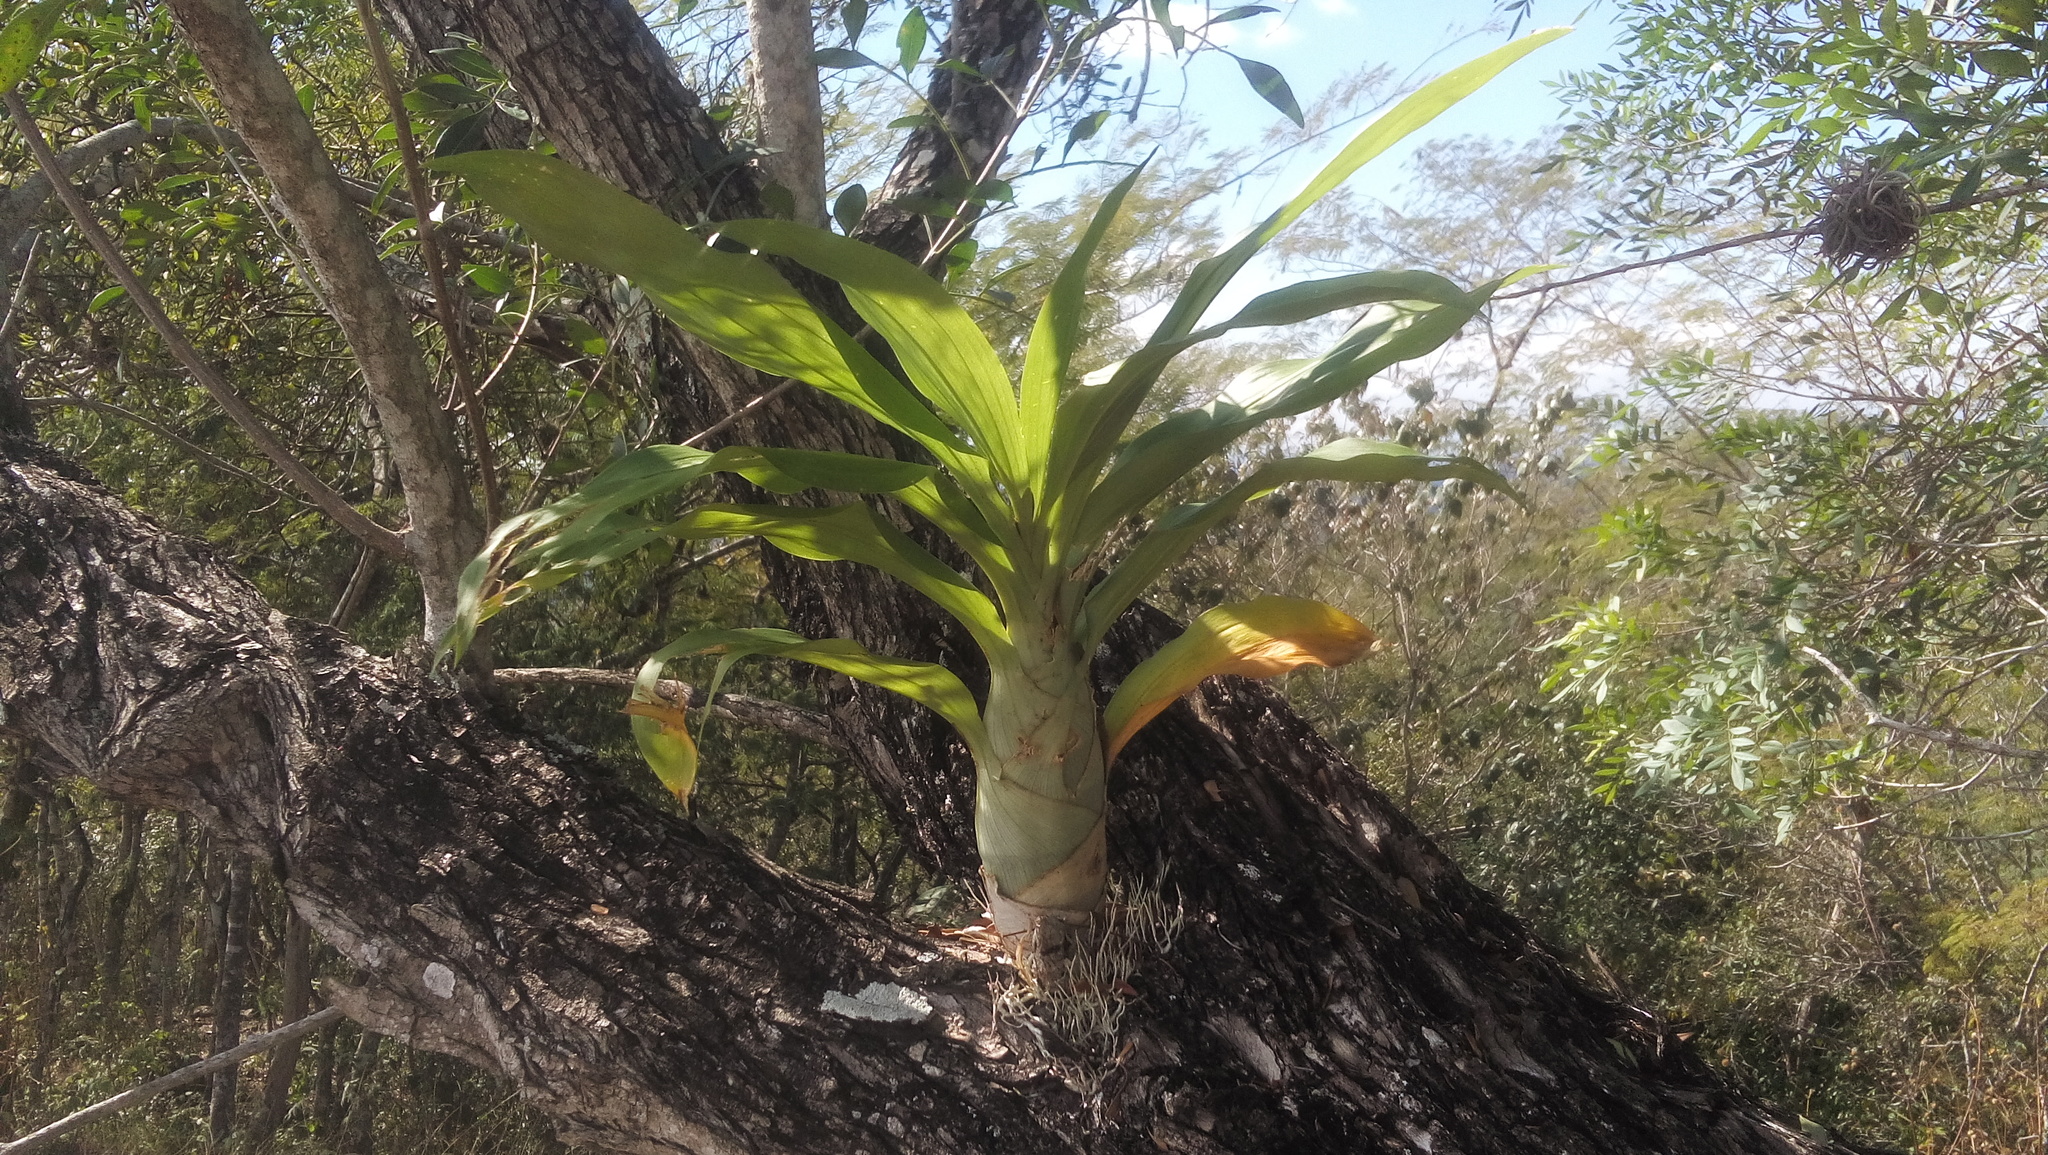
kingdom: Plantae
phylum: Tracheophyta
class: Liliopsida
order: Asparagales
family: Orchidaceae
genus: Catasetum
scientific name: Catasetum integerrimum
